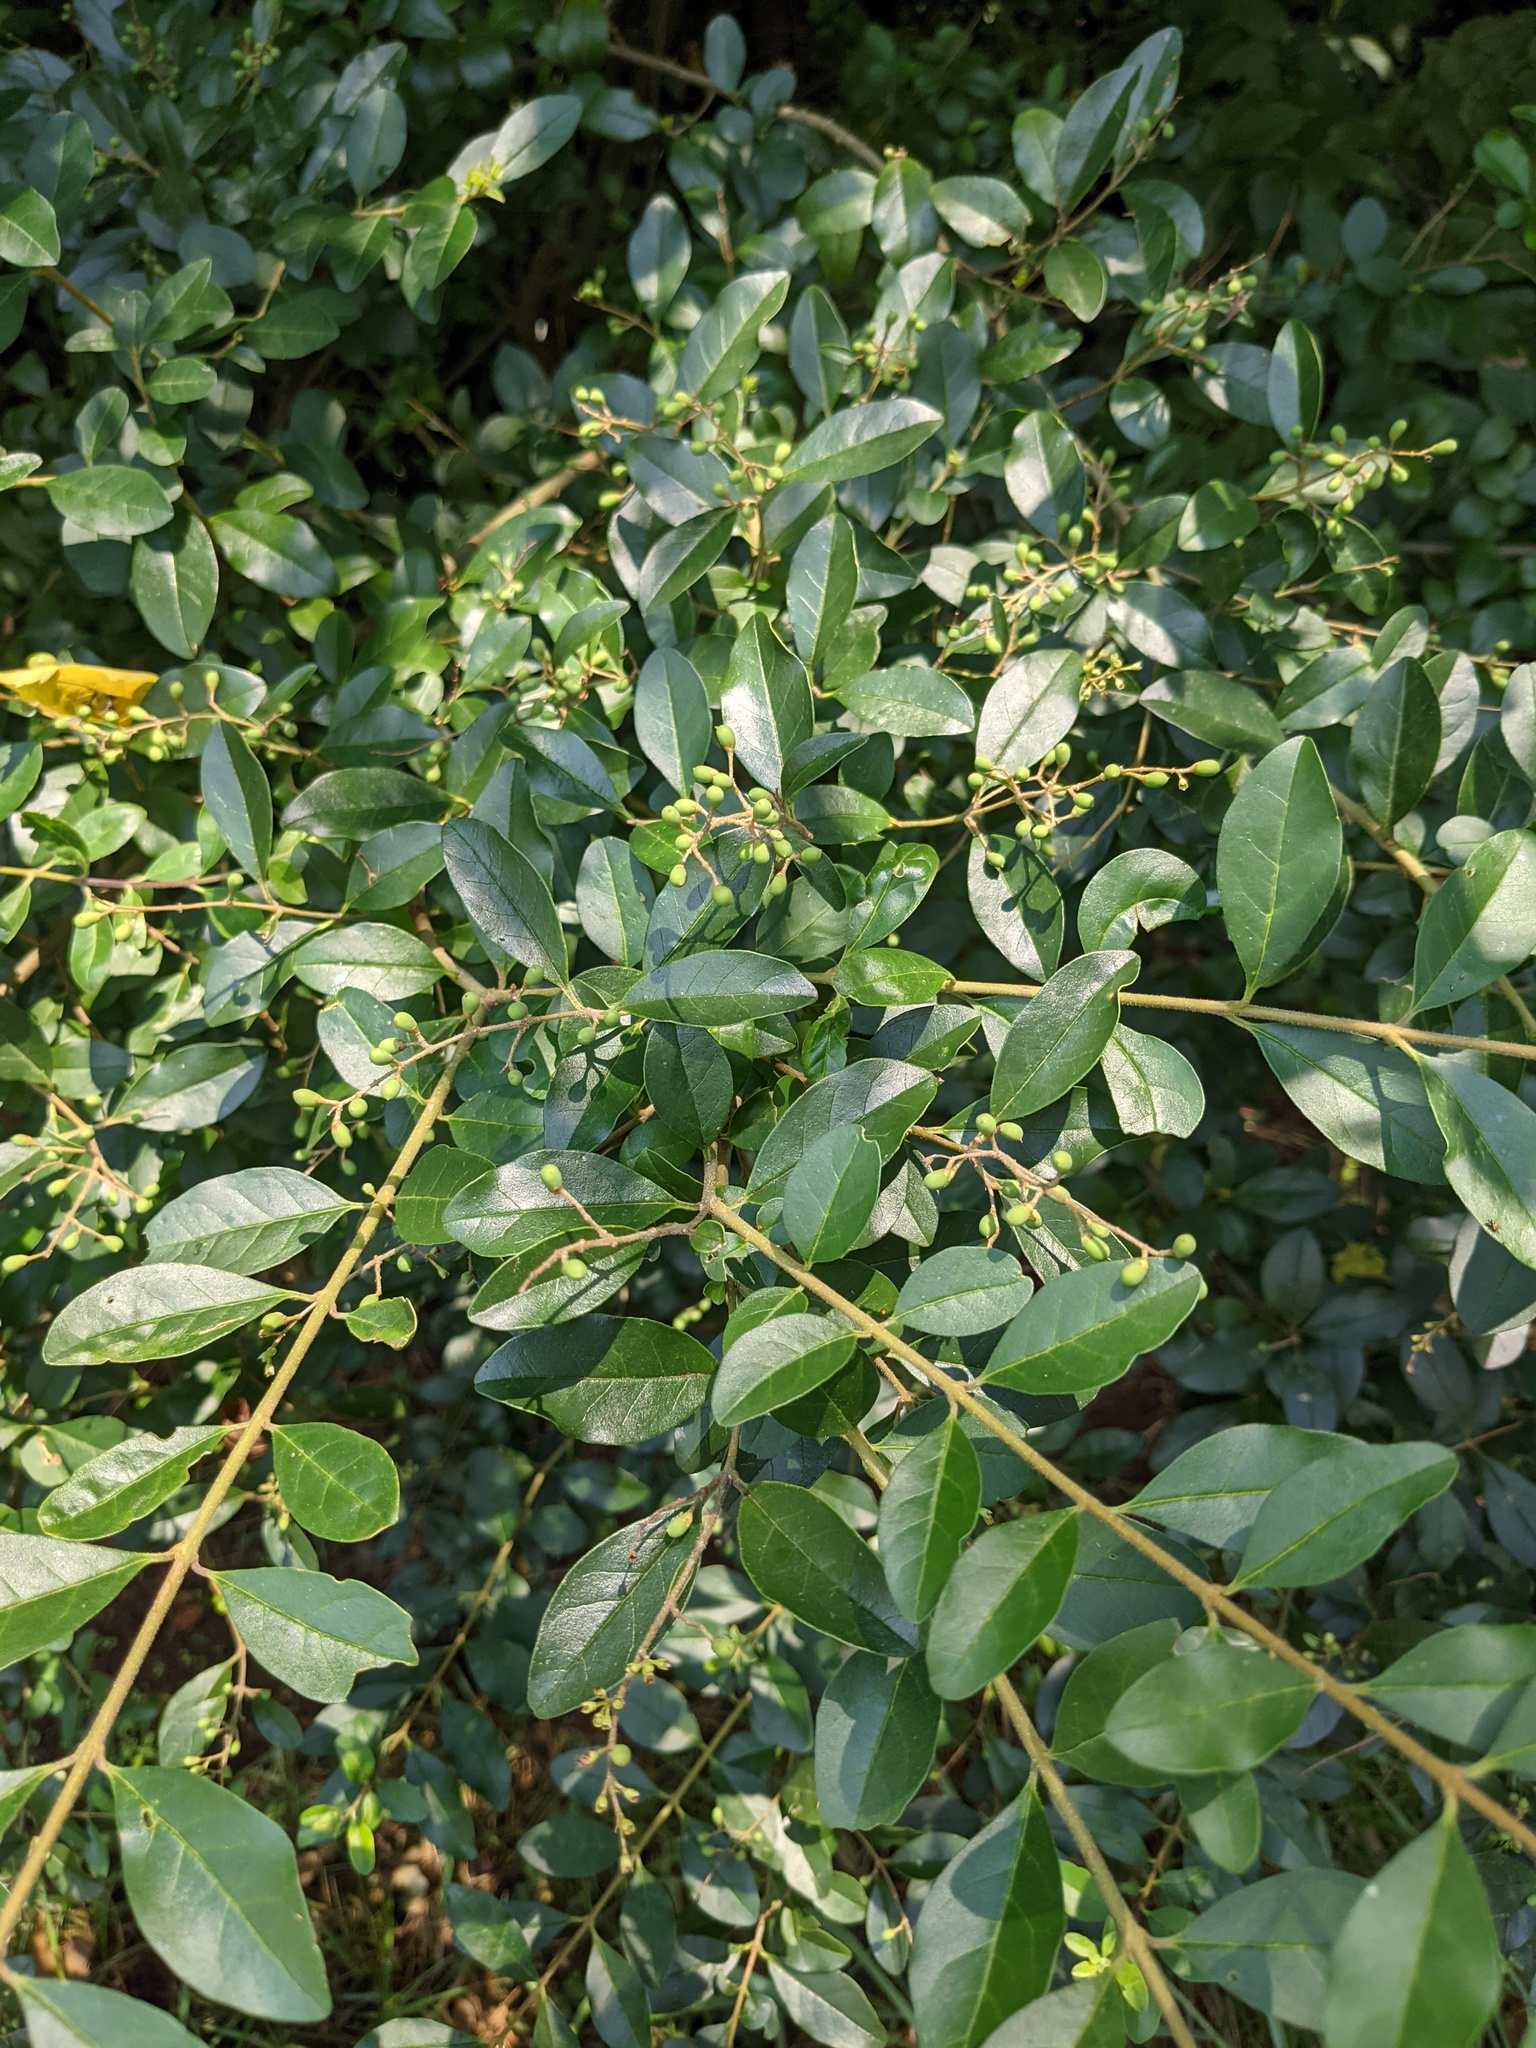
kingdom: Plantae
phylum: Tracheophyta
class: Magnoliopsida
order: Lamiales
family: Oleaceae
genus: Ligustrum
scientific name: Ligustrum sinense
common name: Chinese privet
